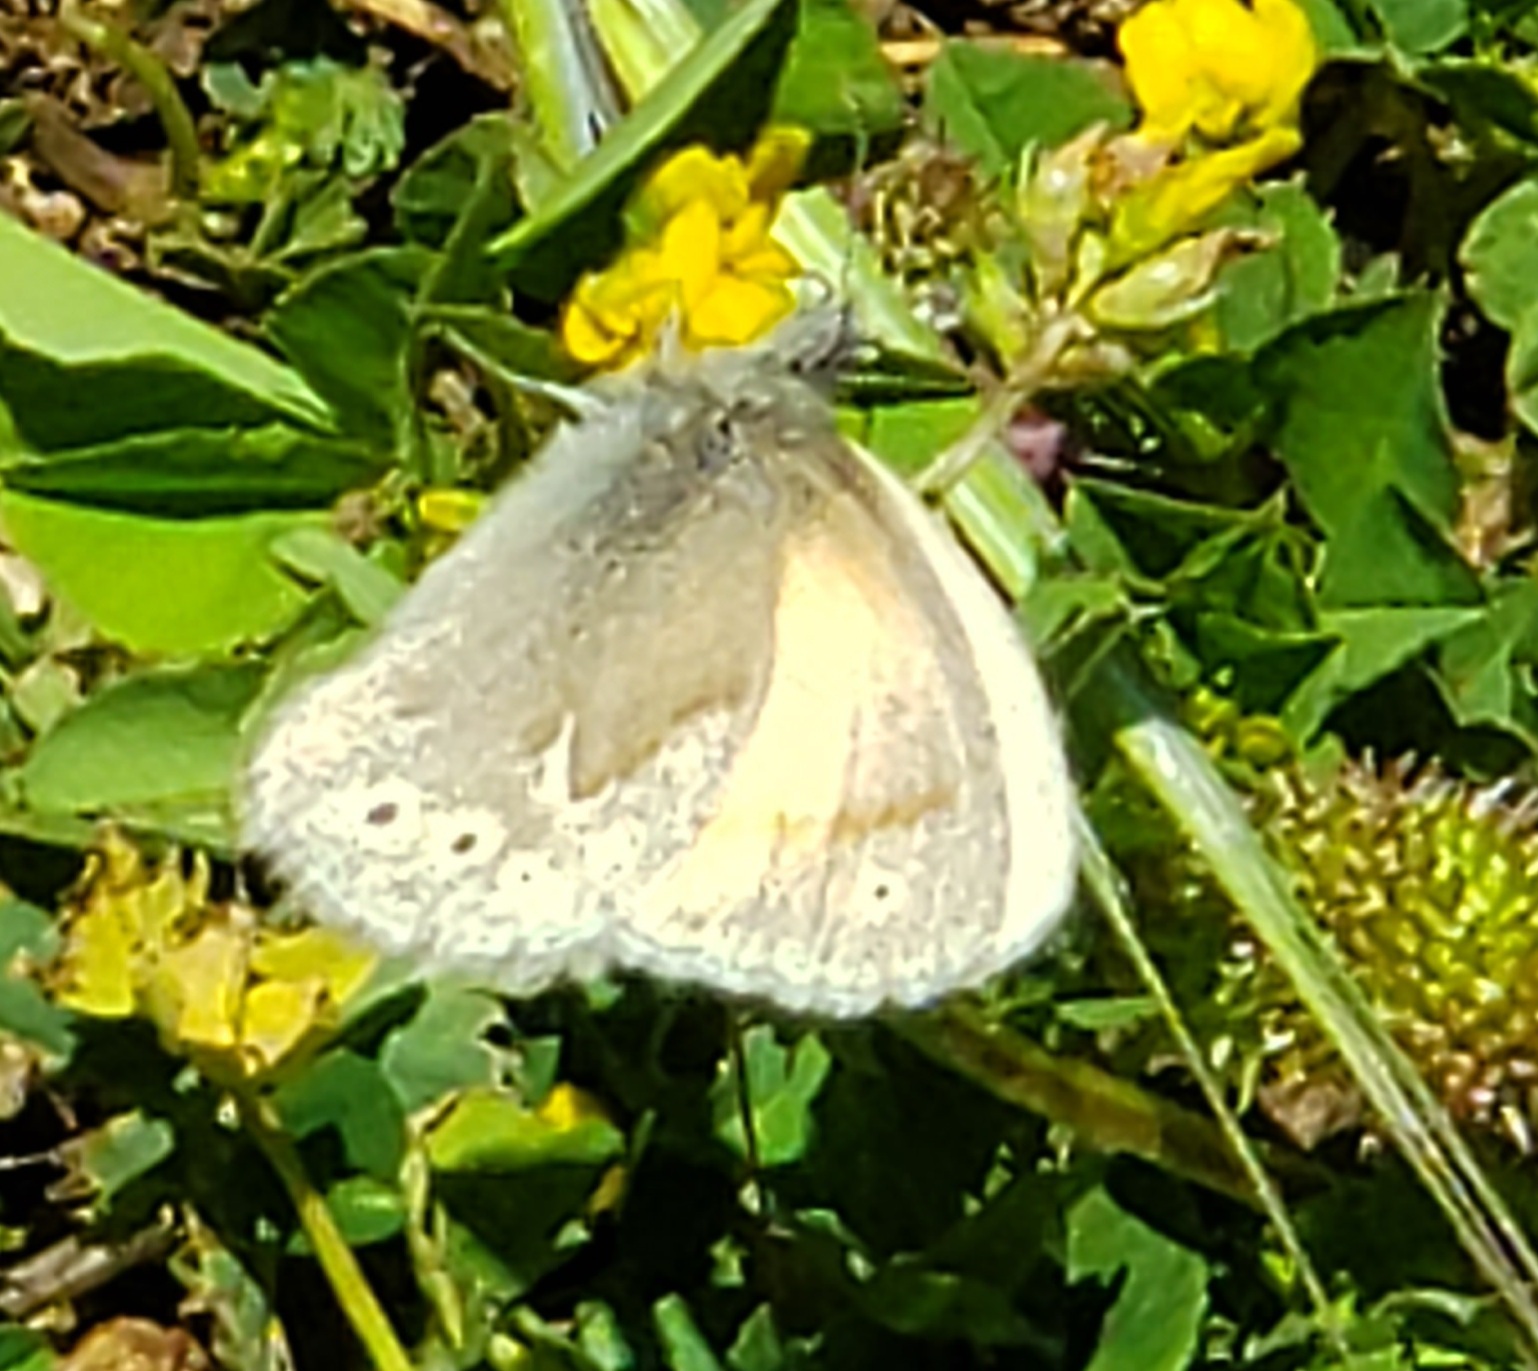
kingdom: Animalia
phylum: Arthropoda
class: Insecta
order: Lepidoptera
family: Nymphalidae
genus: Coenonympha
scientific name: Coenonympha california
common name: Common ringlet
